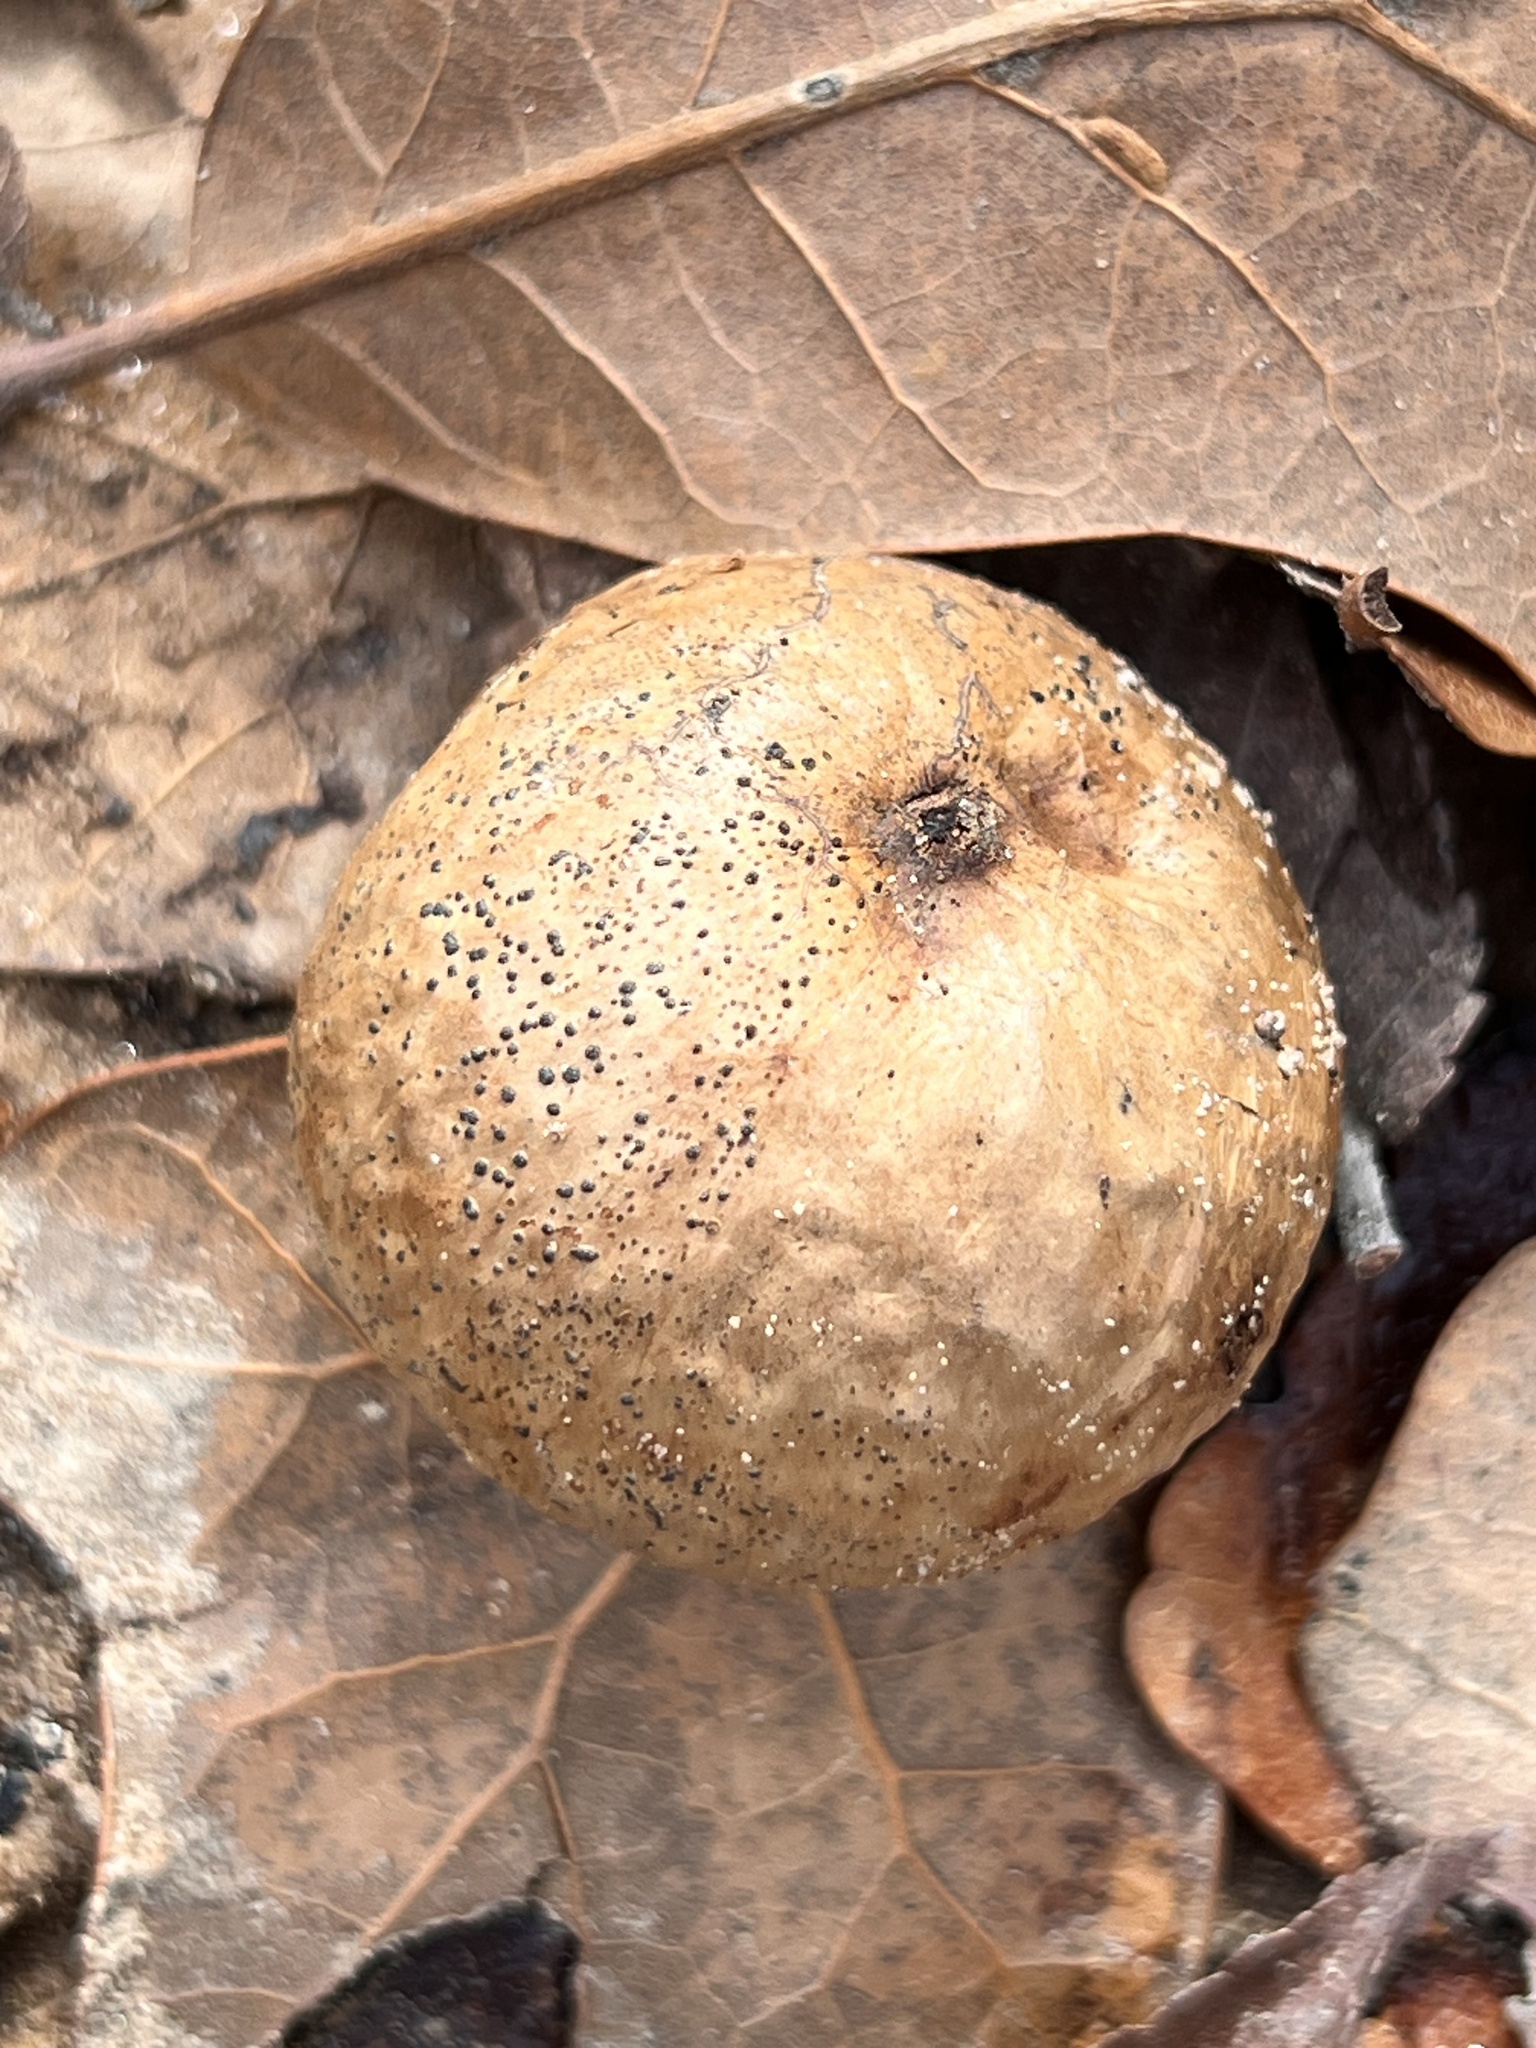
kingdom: Animalia
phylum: Arthropoda
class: Insecta
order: Hymenoptera
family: Cynipidae
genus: Amphibolips
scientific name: Amphibolips
